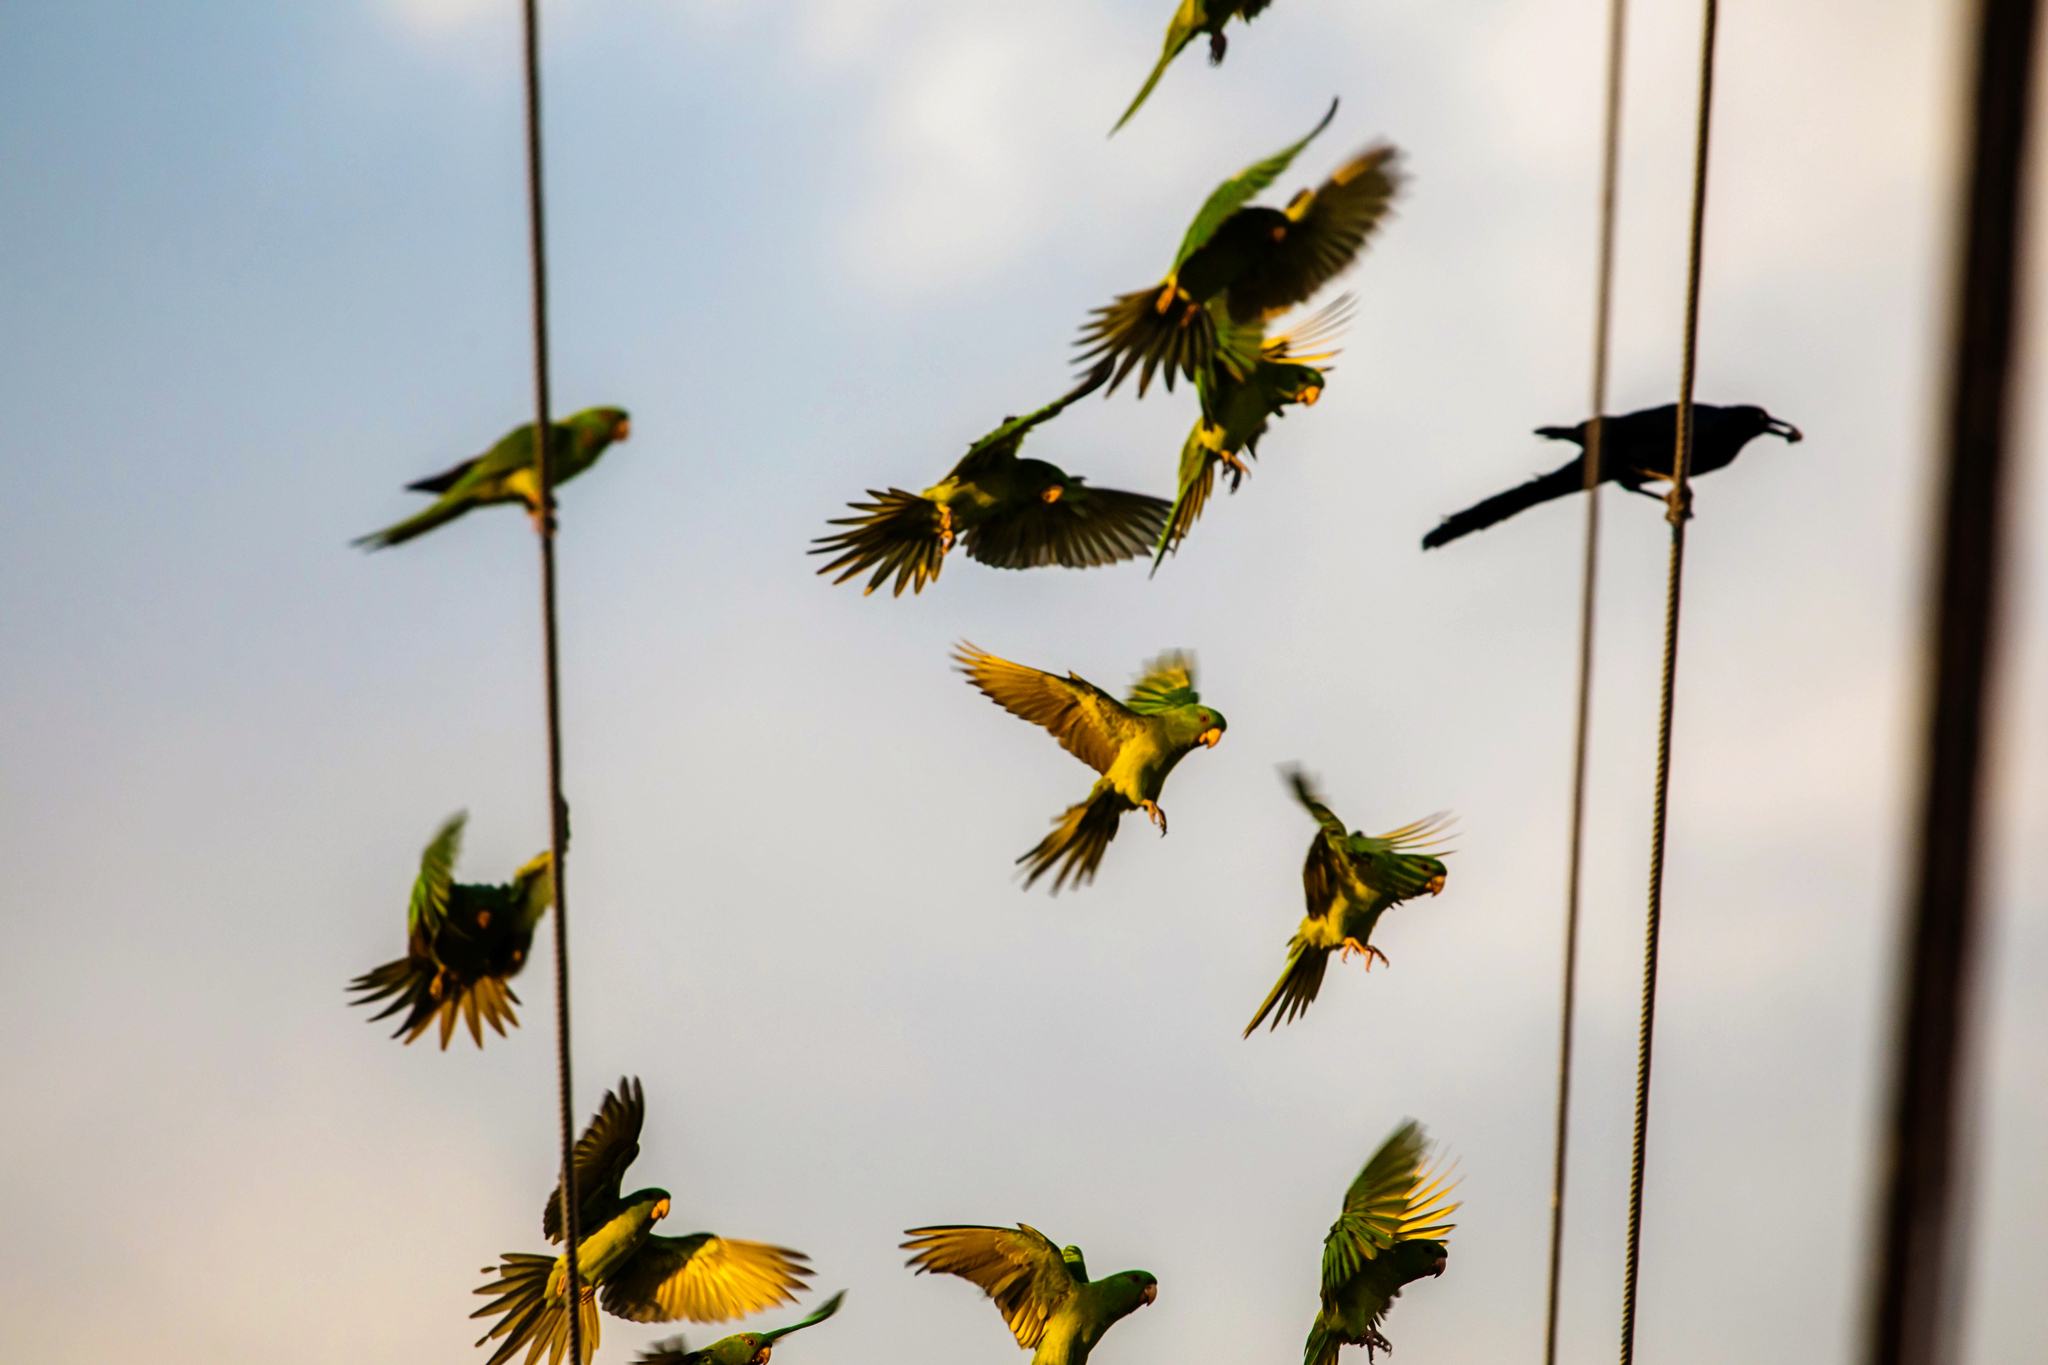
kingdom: Animalia
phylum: Chordata
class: Aves
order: Psittaciformes
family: Psittacidae
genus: Aratinga
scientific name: Aratinga holochlora
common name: Green parakeet
